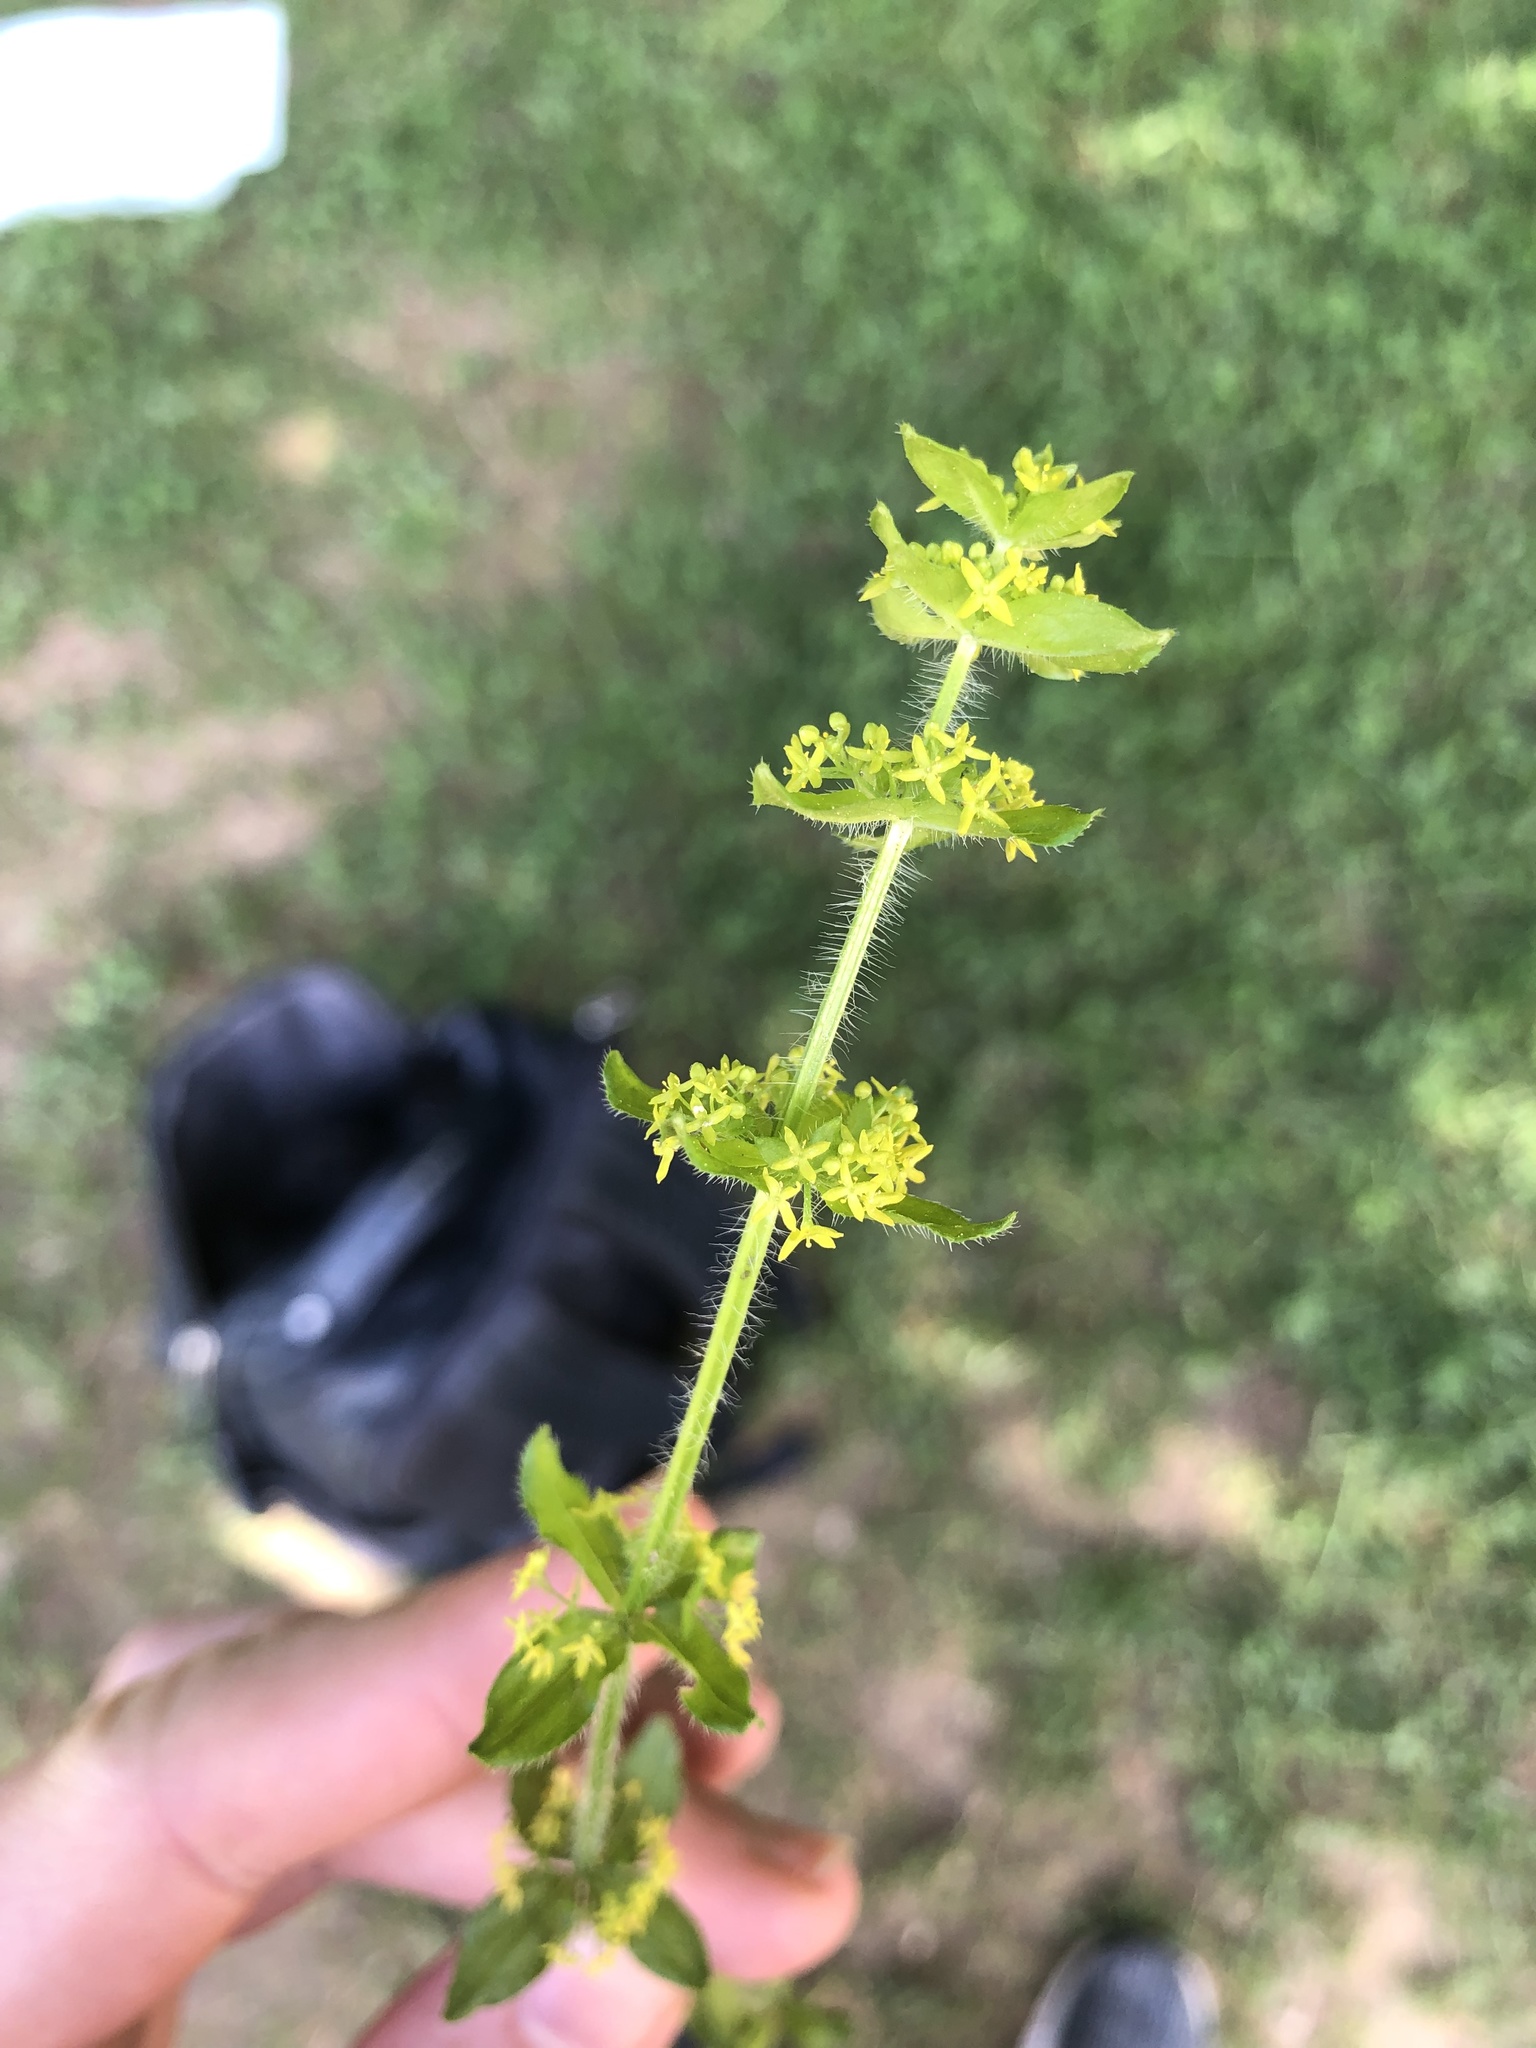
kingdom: Plantae
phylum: Tracheophyta
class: Magnoliopsida
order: Gentianales
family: Rubiaceae
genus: Cruciata
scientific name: Cruciata laevipes
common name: Crosswort
